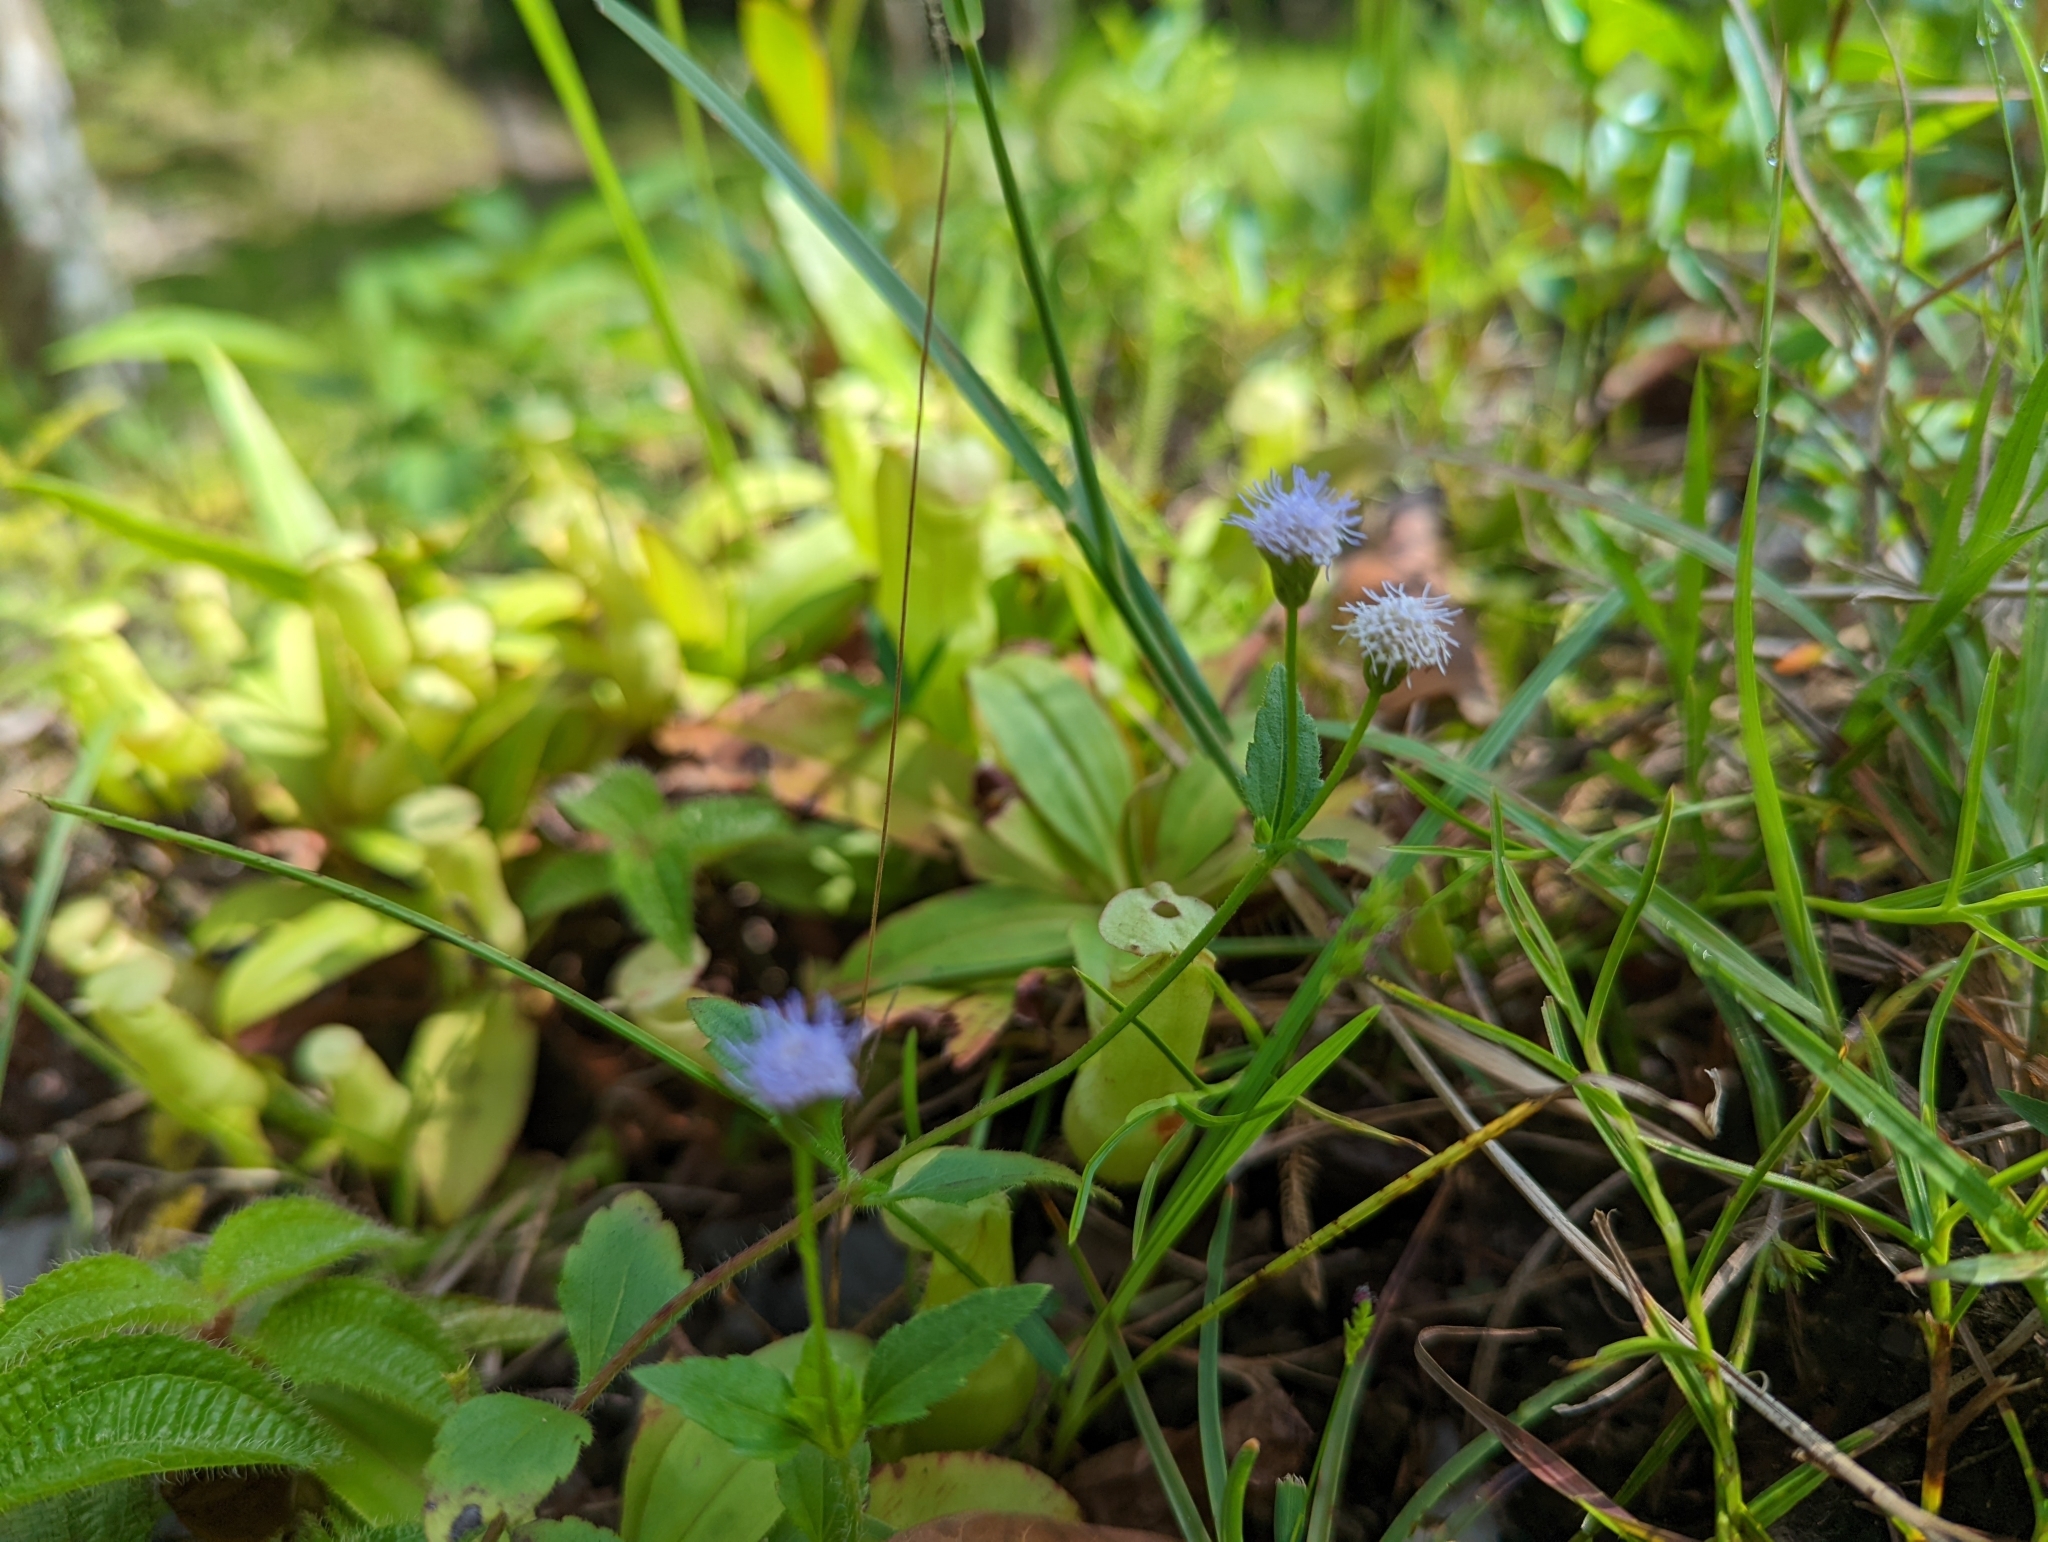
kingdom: Plantae
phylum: Tracheophyta
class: Magnoliopsida
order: Asterales
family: Asteraceae
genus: Praxelis
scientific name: Praxelis clematidea
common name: Praxelis
